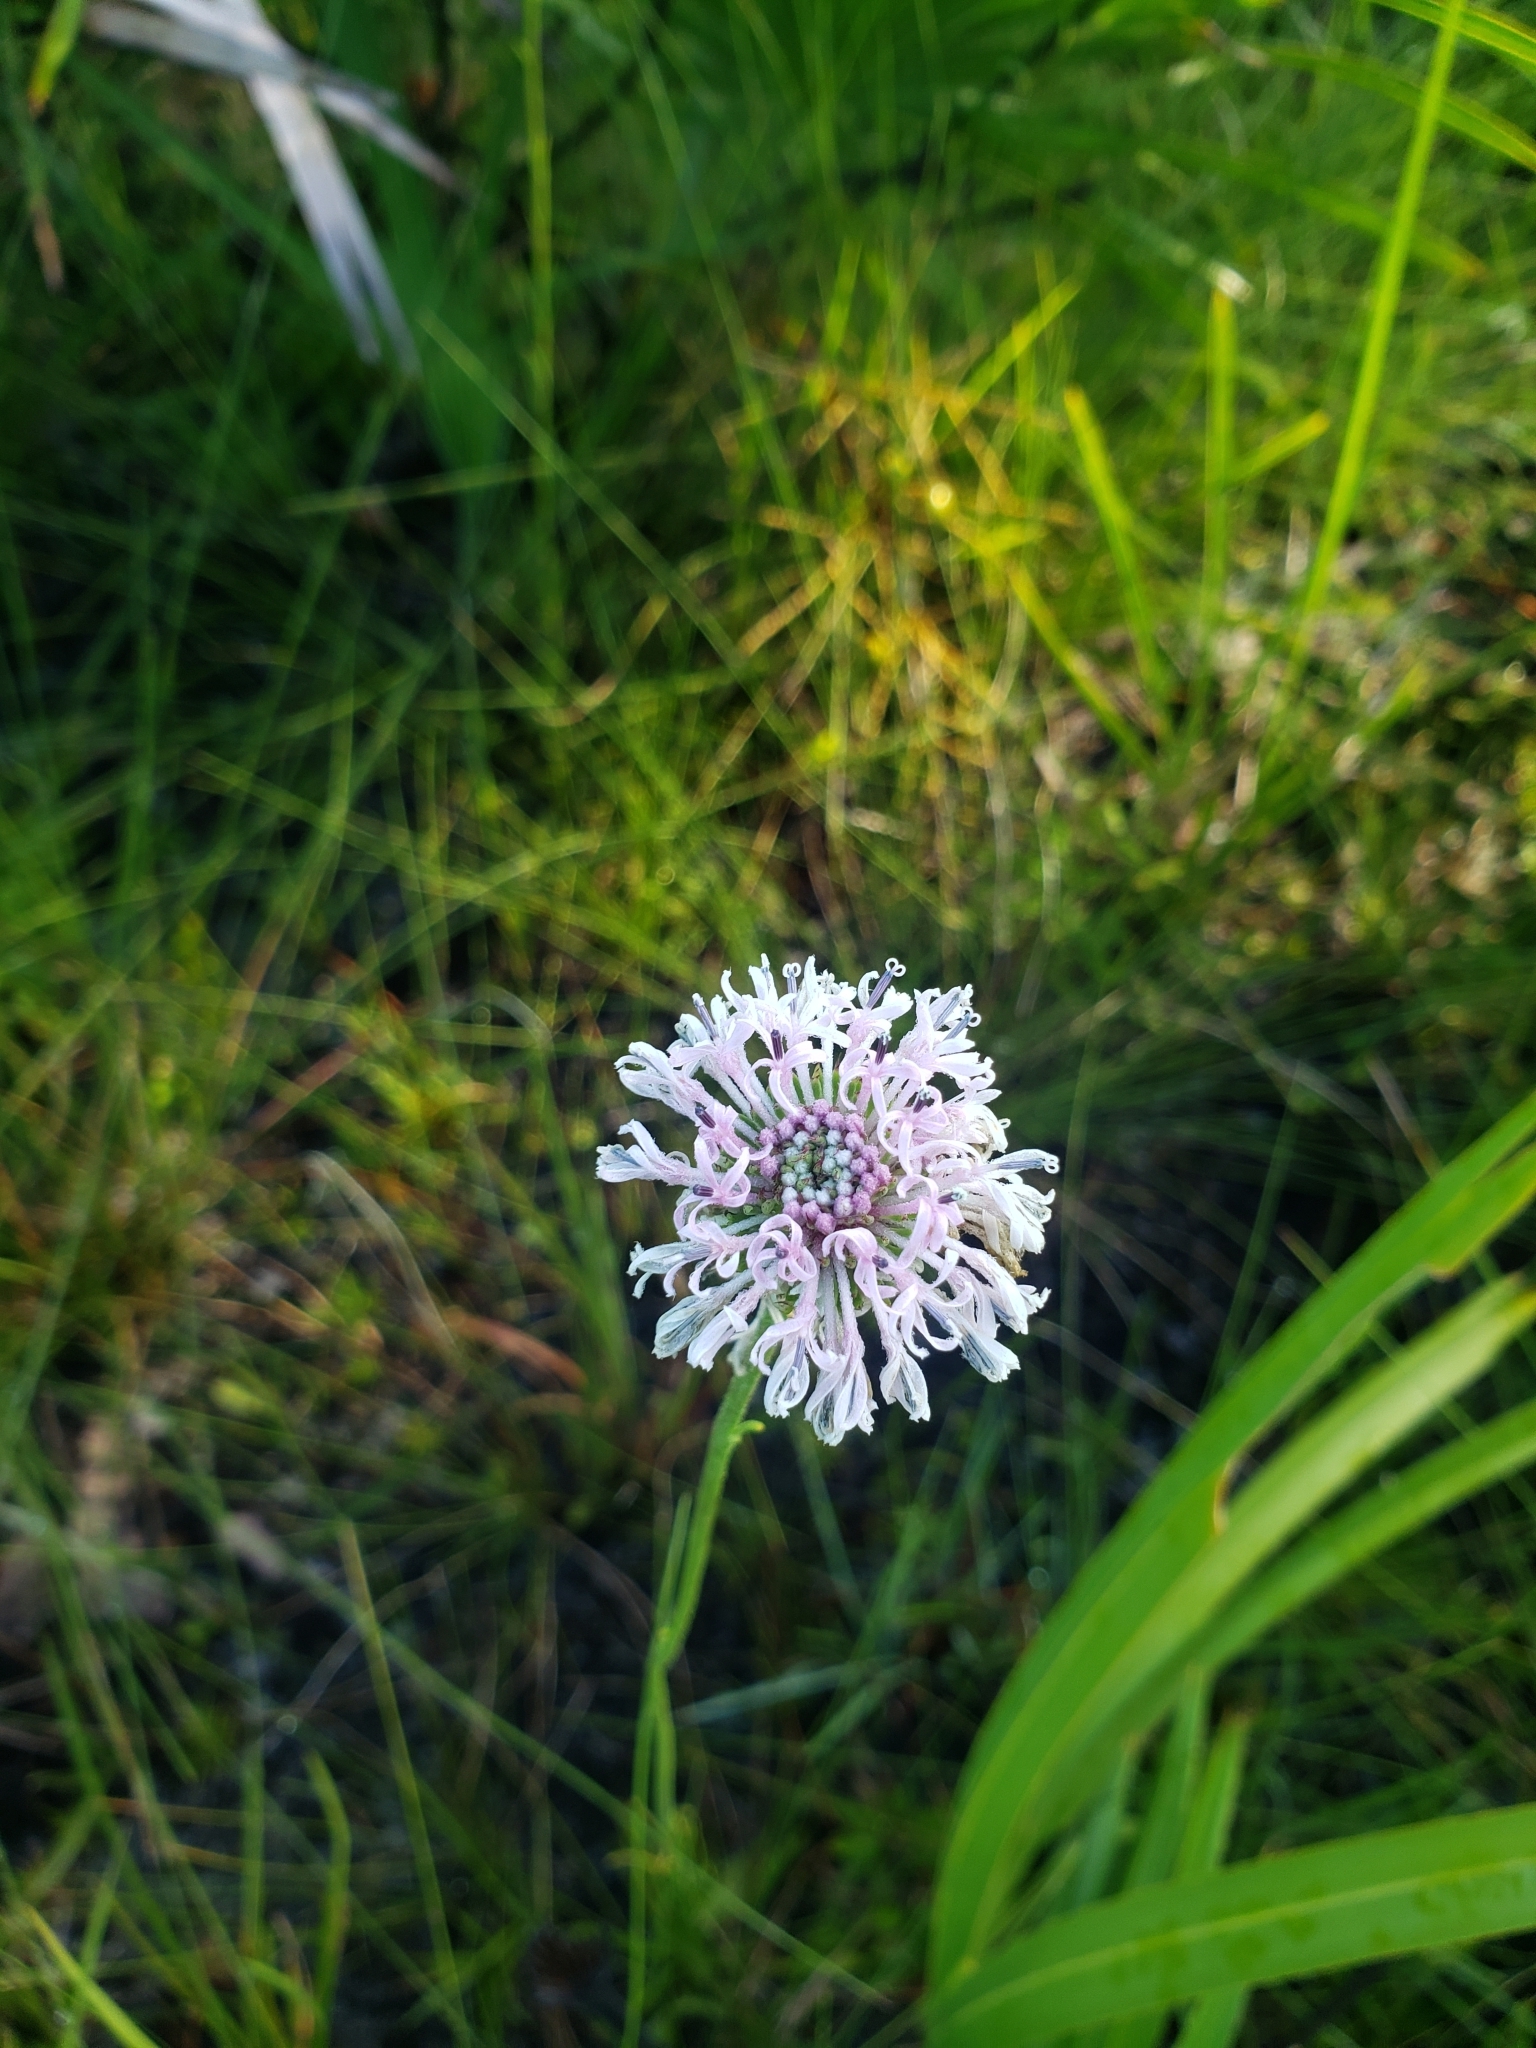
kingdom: Plantae
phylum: Tracheophyta
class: Magnoliopsida
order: Asterales
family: Asteraceae
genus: Marshallia
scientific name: Marshallia graminifolia
